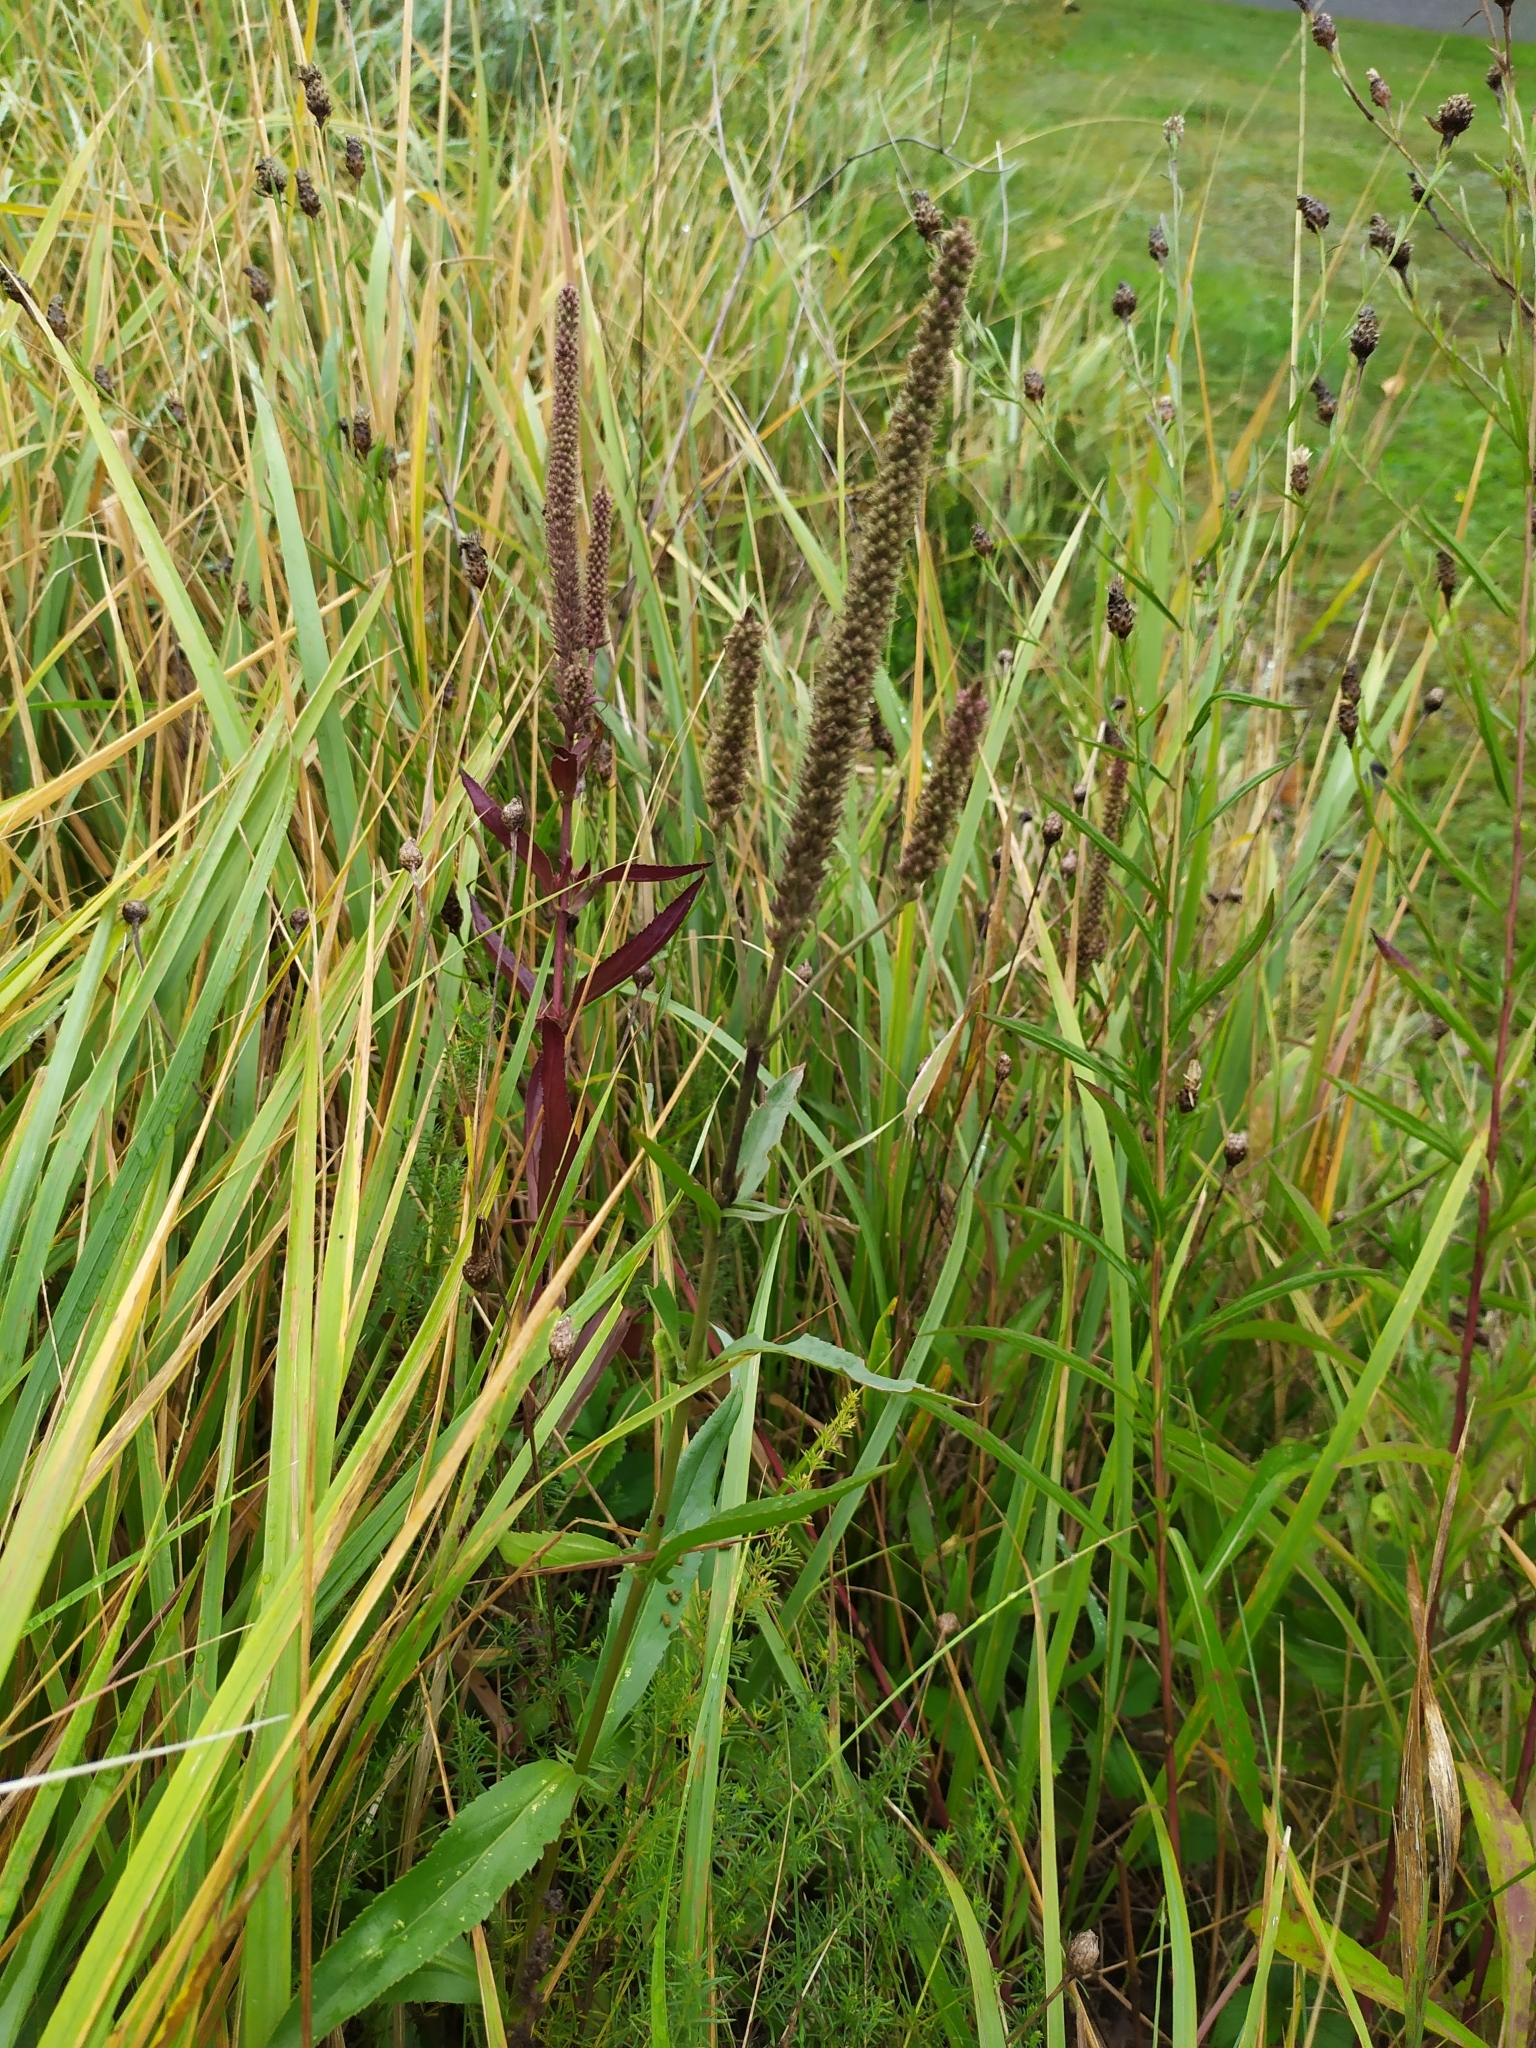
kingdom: Plantae
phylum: Tracheophyta
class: Magnoliopsida
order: Lamiales
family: Plantaginaceae
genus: Veronica
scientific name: Veronica spuria
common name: Bastard speedwell
